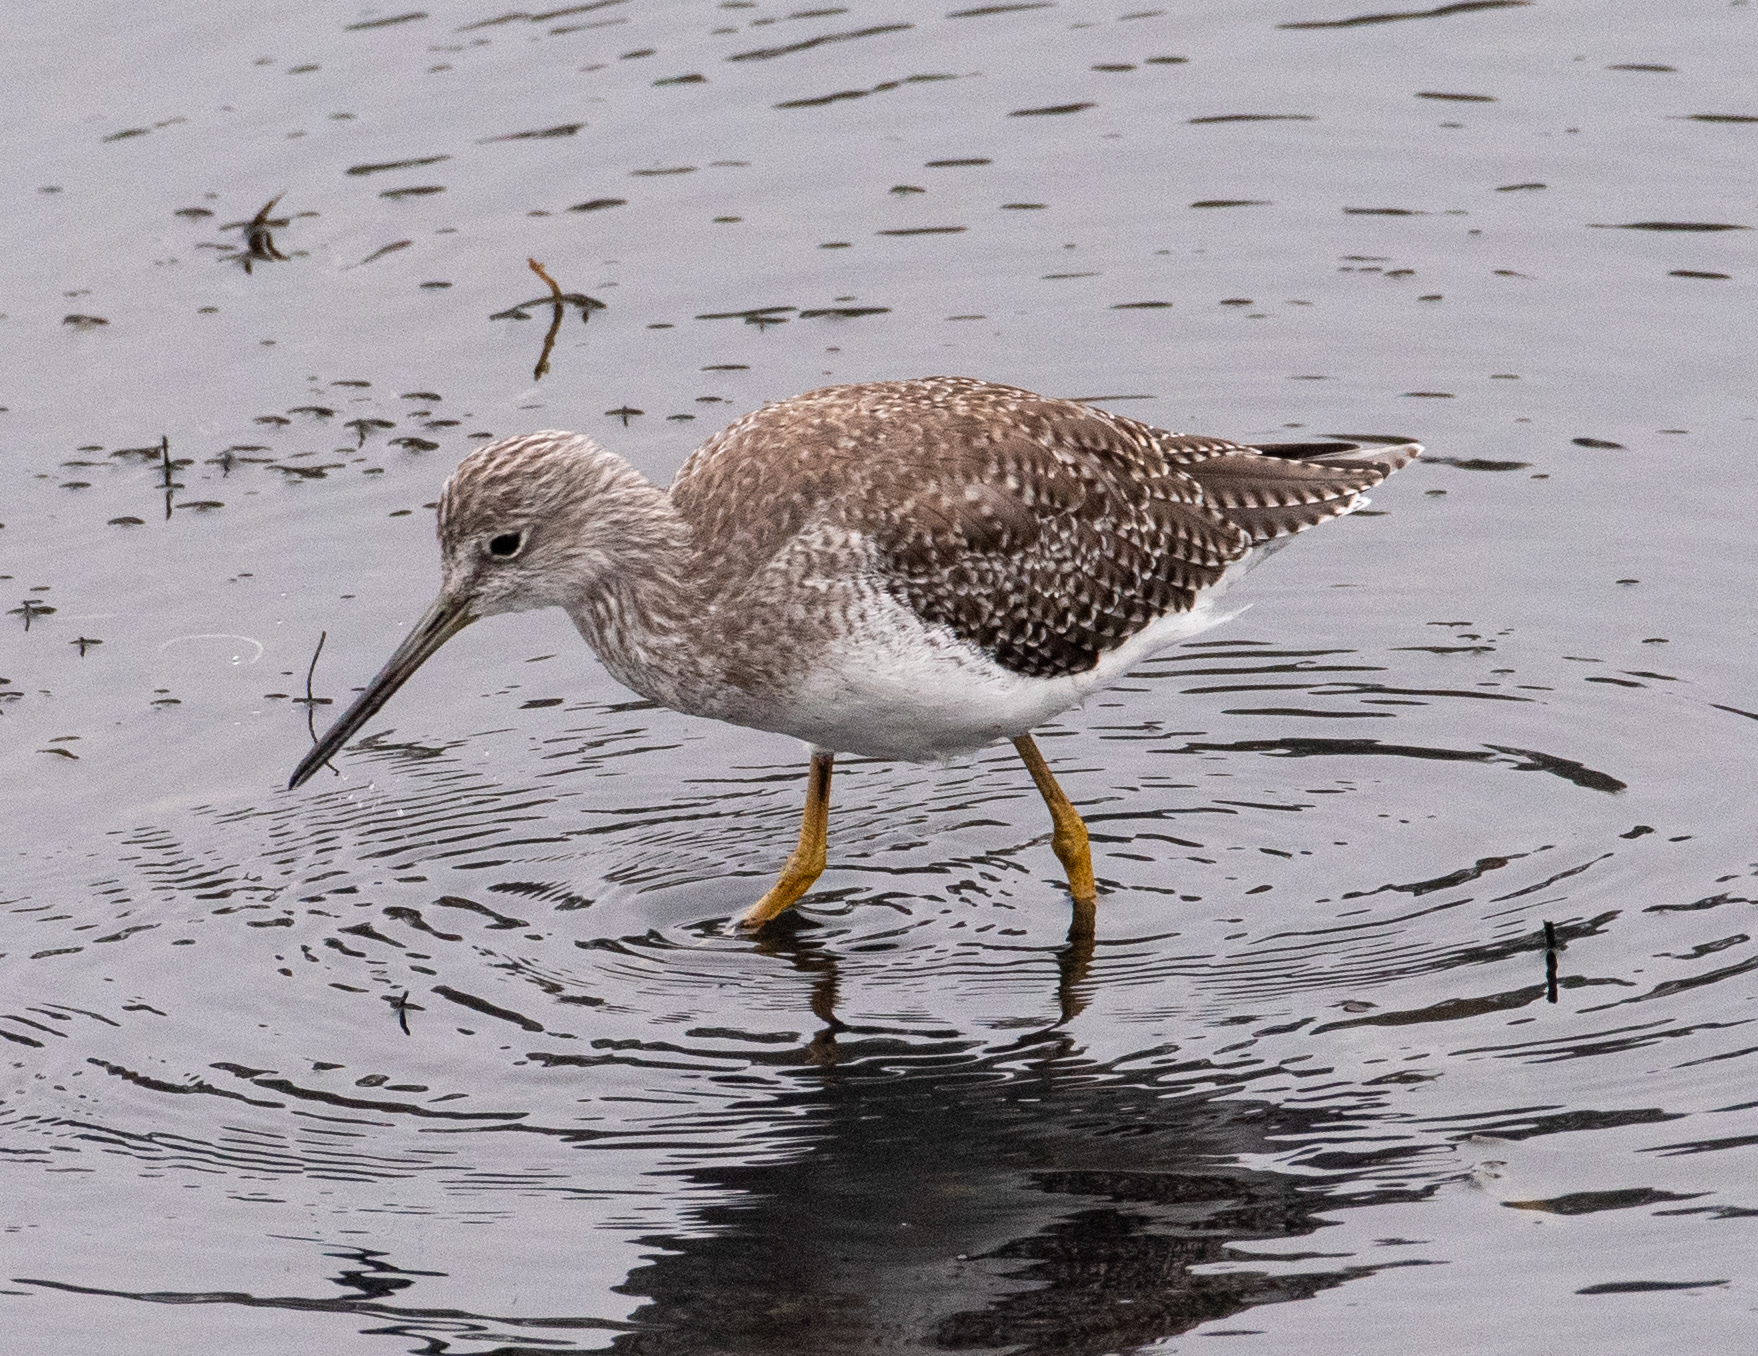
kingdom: Animalia
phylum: Chordata
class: Aves
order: Charadriiformes
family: Scolopacidae
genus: Tringa
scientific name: Tringa melanoleuca
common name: Greater yellowlegs
